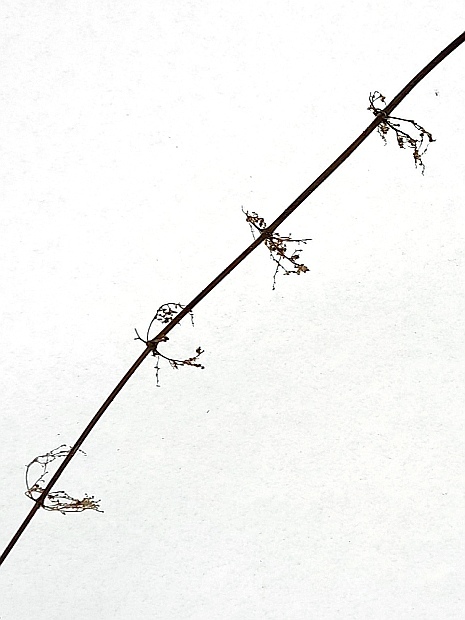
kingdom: Plantae
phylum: Tracheophyta
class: Magnoliopsida
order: Rosales
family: Urticaceae
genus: Urtica
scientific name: Urtica dioica
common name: Common nettle
